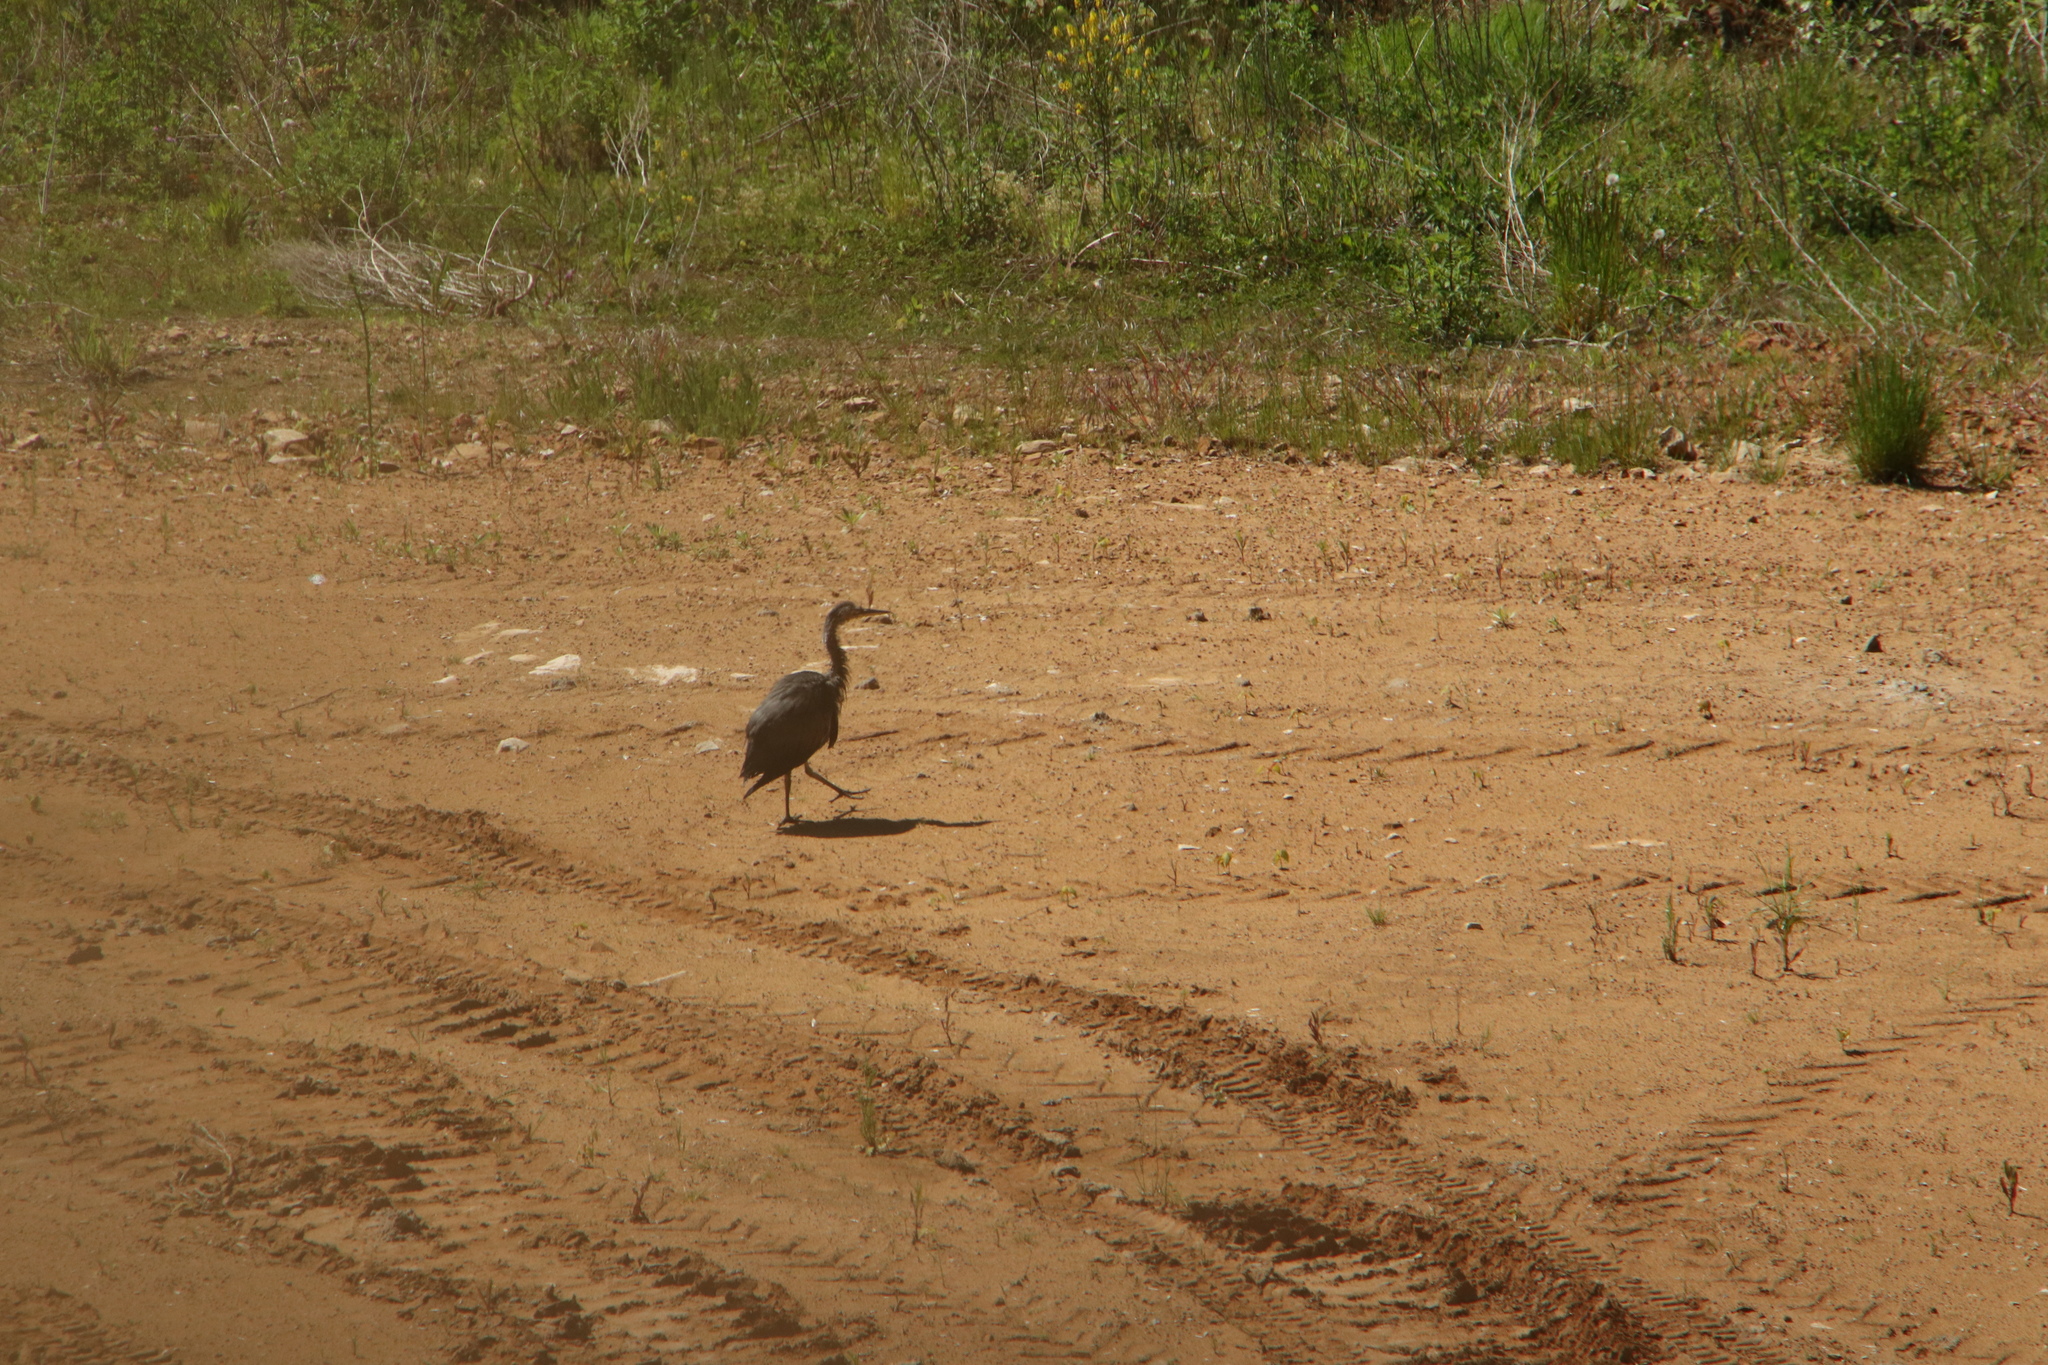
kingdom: Animalia
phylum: Chordata
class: Aves
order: Pelecaniformes
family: Ardeidae
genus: Ardea
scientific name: Ardea cinerea
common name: Grey heron
